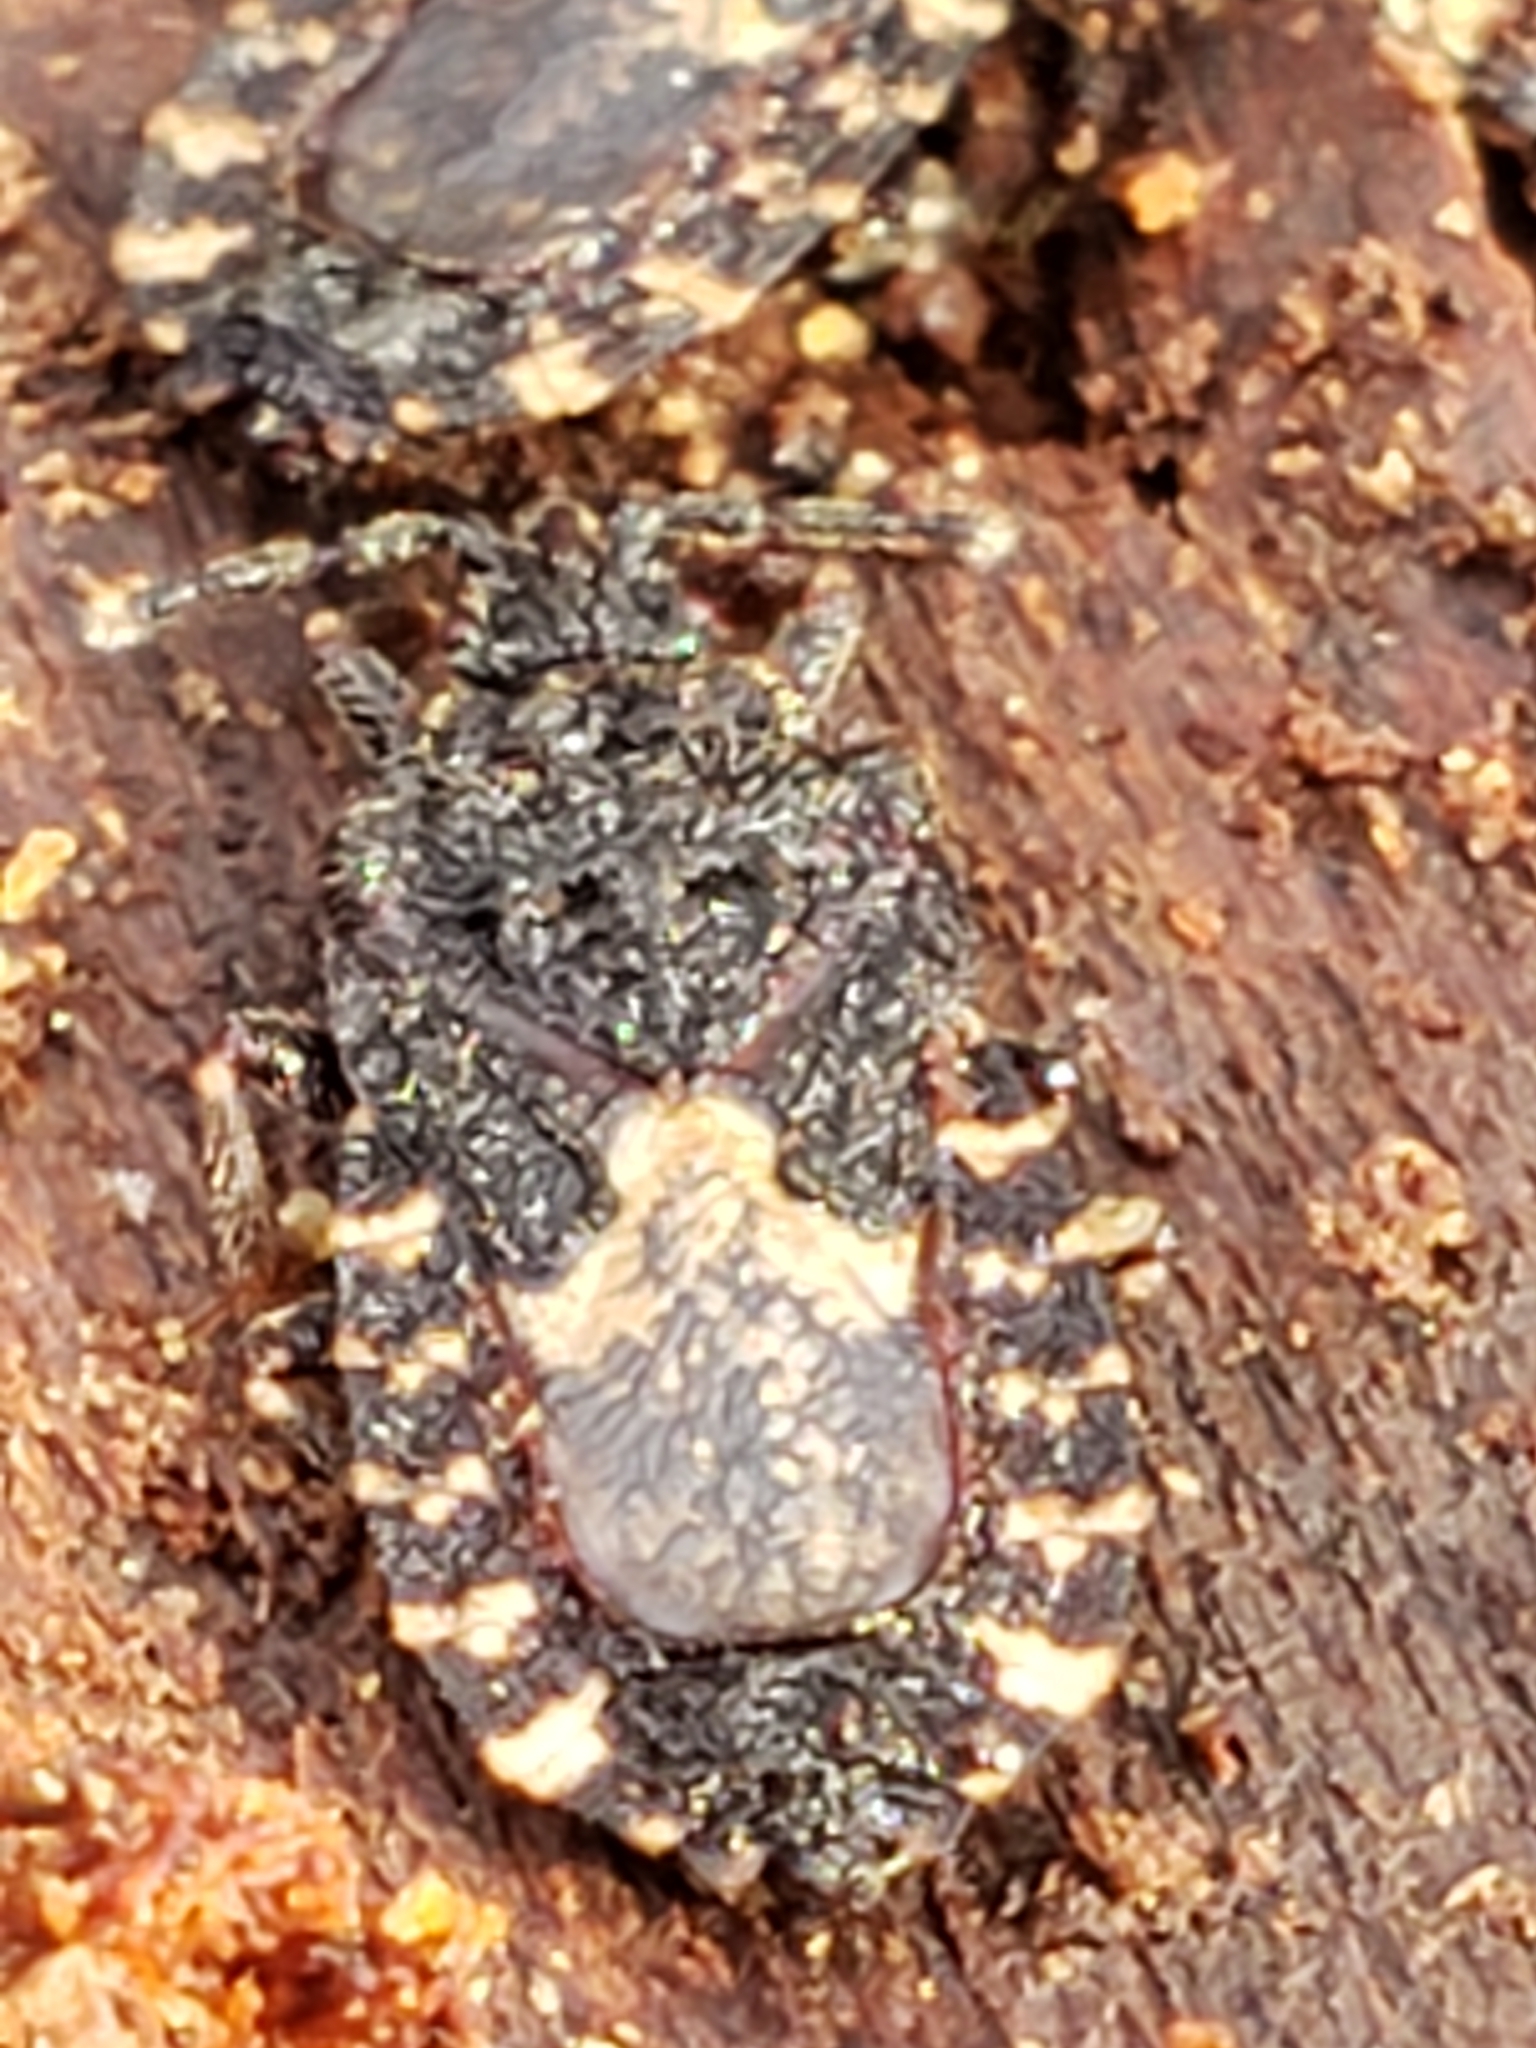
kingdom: Animalia
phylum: Arthropoda
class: Insecta
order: Hemiptera
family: Aradidae
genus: Mezira
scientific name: Mezira
